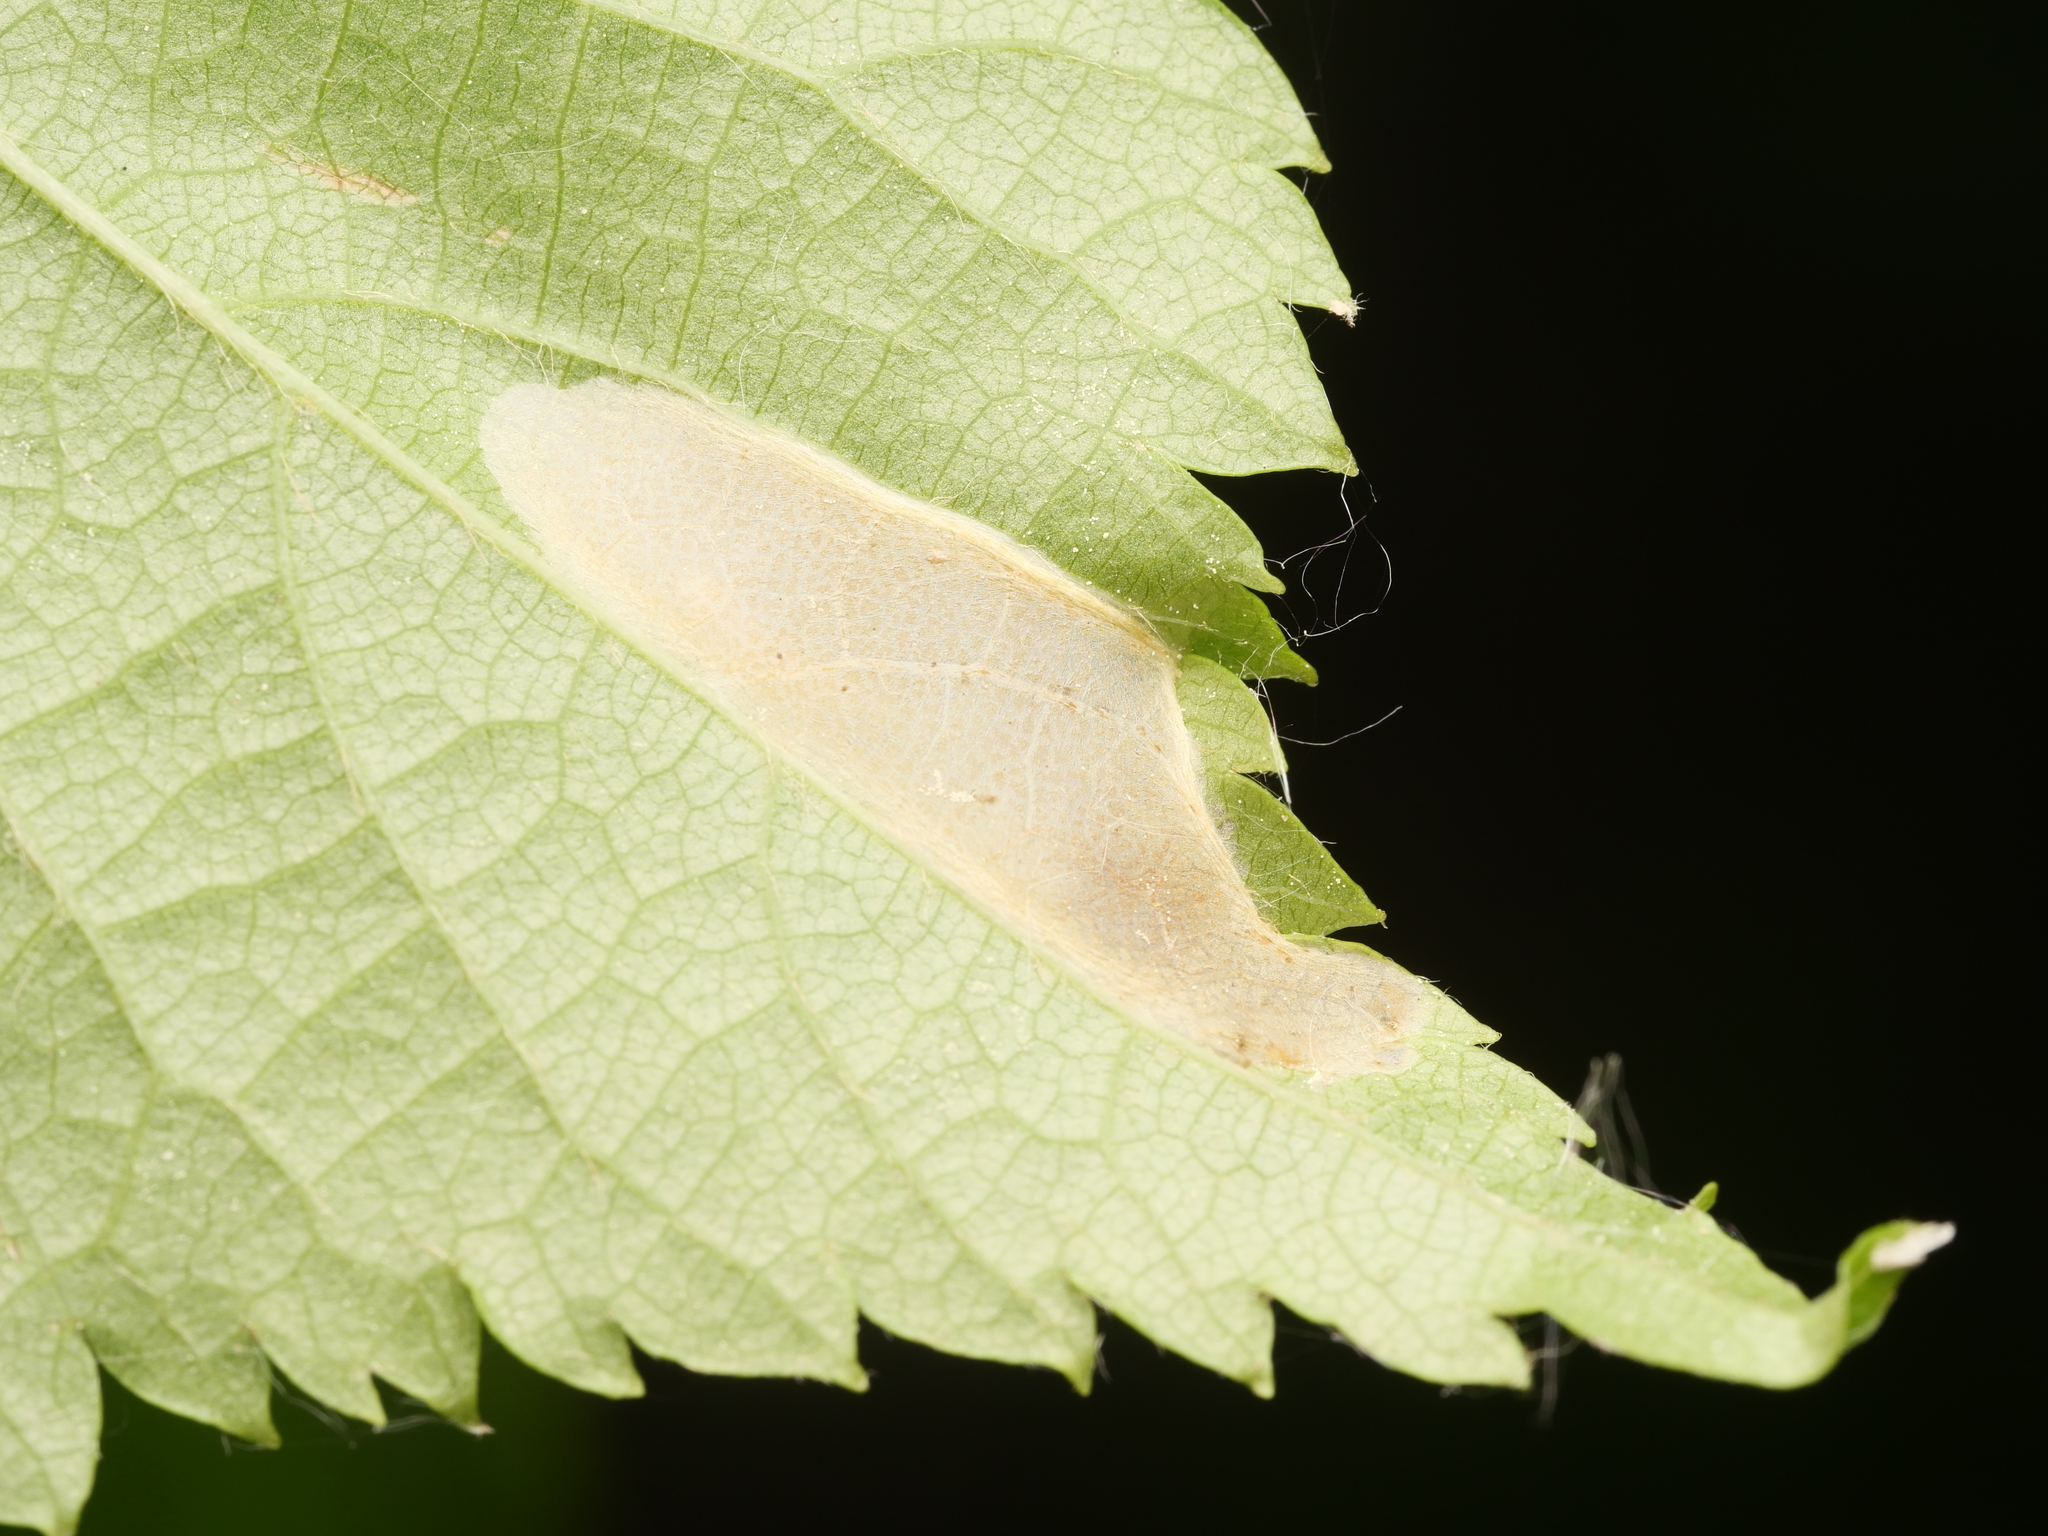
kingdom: Animalia
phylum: Arthropoda
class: Insecta
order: Lepidoptera
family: Gracillariidae
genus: Phyllonorycter
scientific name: Phyllonorycter issikii
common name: Linden midget
